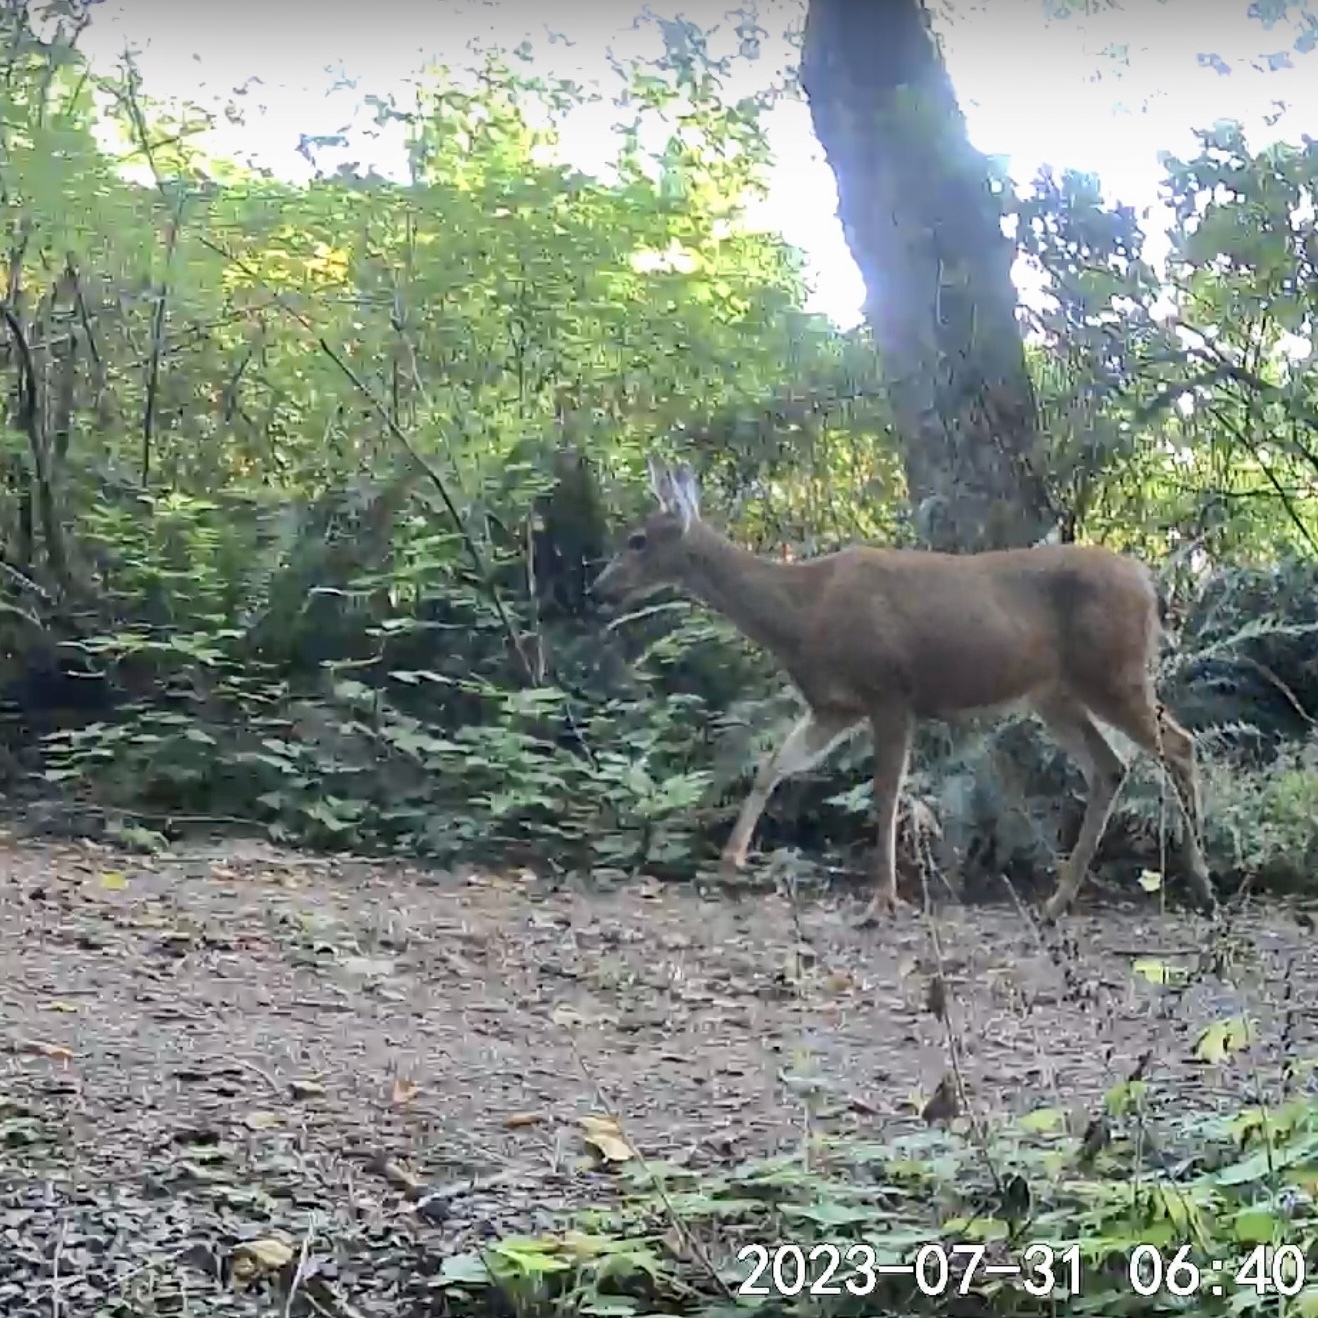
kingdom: Animalia
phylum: Chordata
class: Mammalia
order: Artiodactyla
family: Cervidae
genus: Odocoileus
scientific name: Odocoileus hemionus
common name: Mule deer
